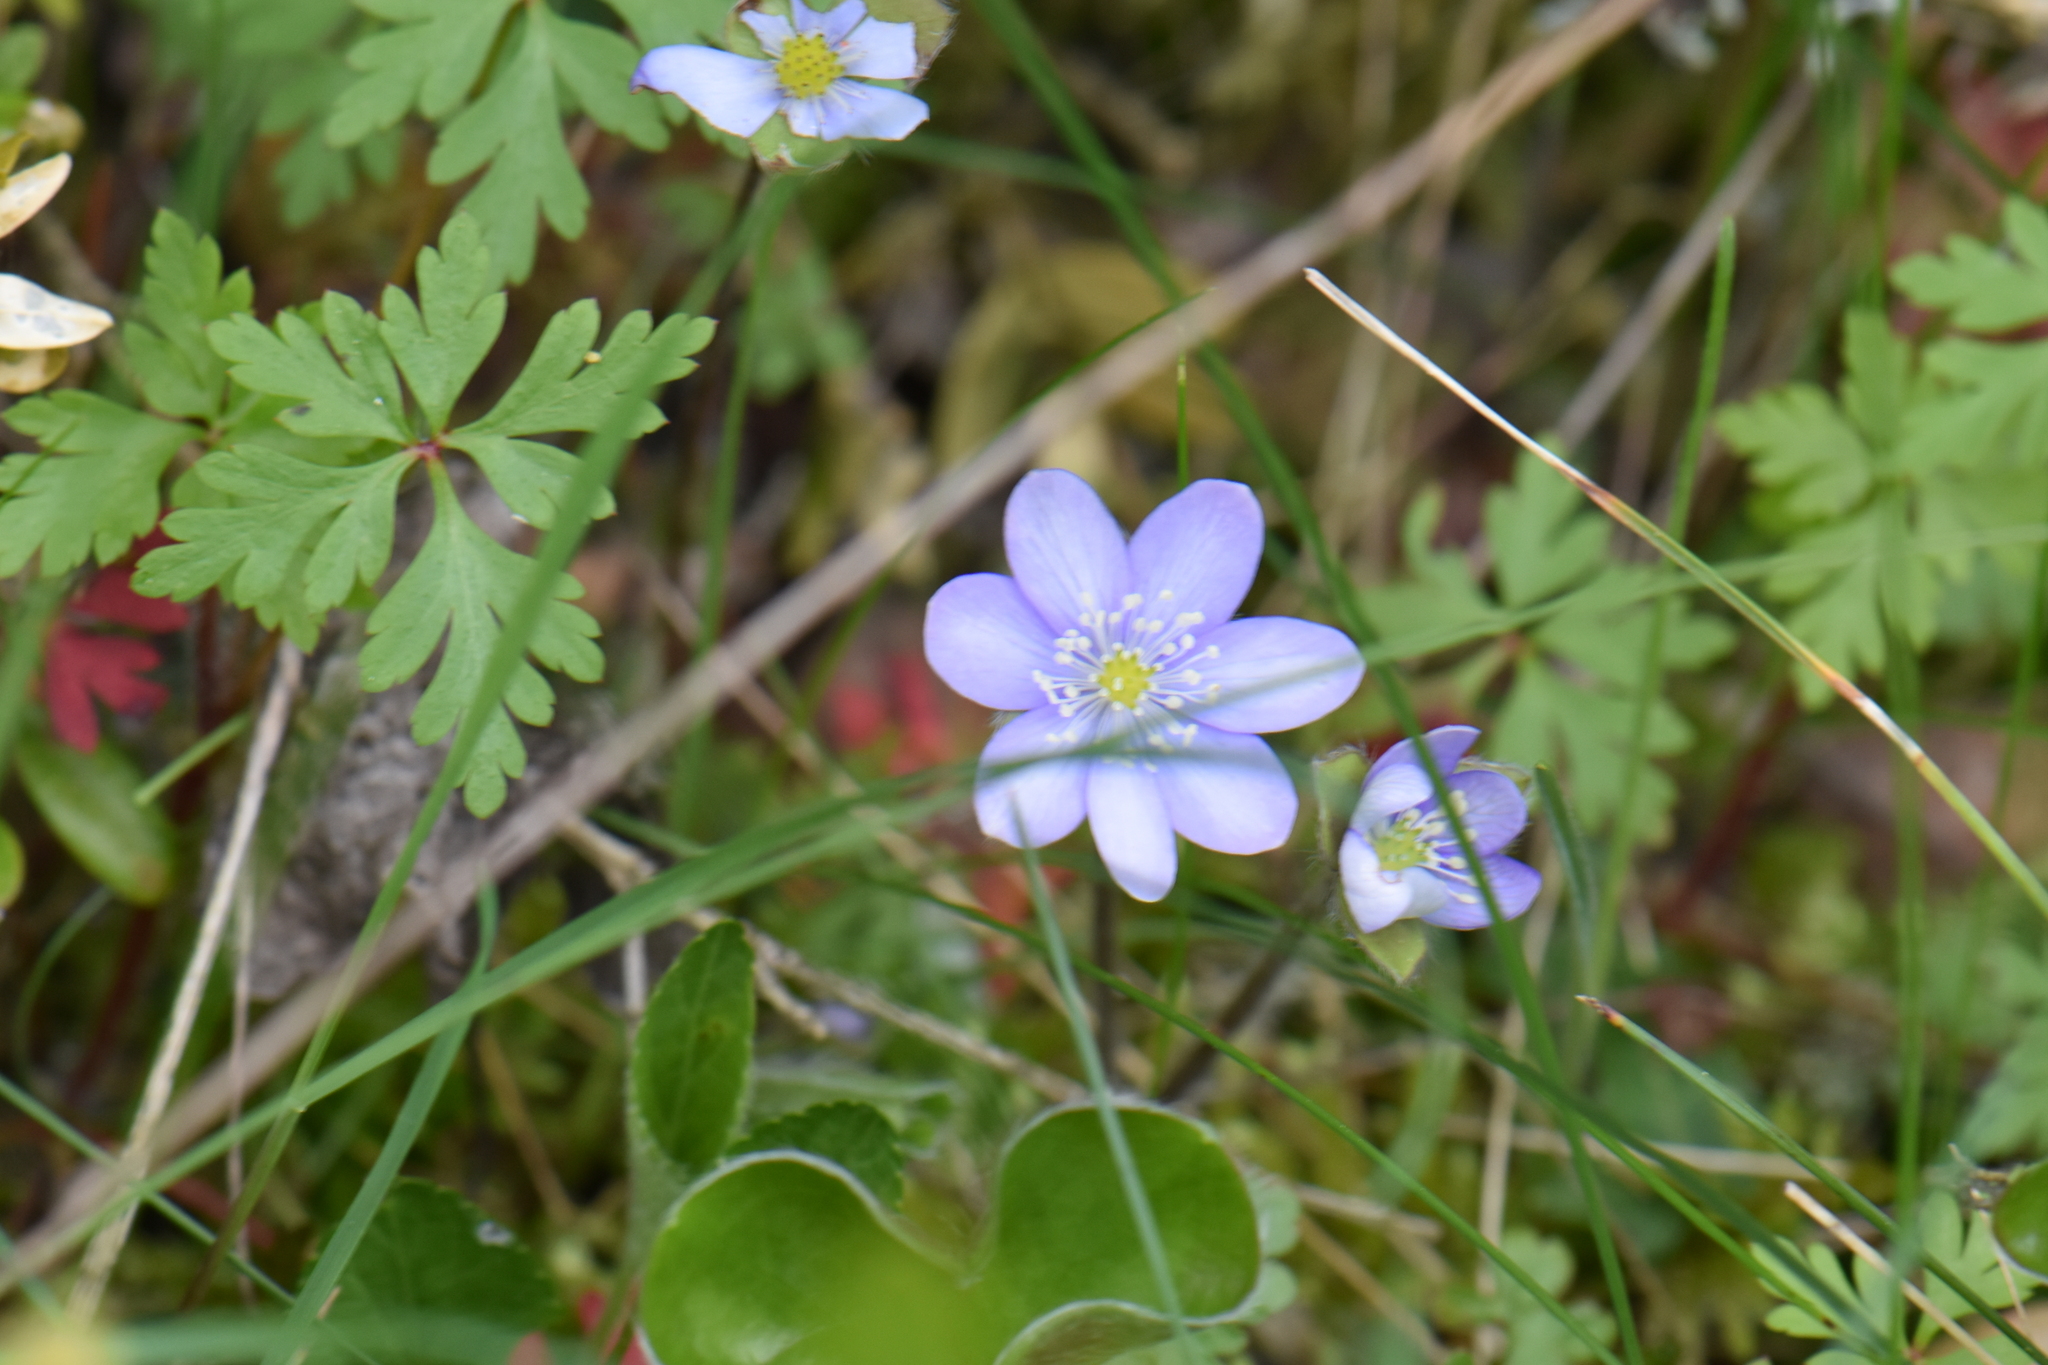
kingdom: Plantae
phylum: Tracheophyta
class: Magnoliopsida
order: Ranunculales
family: Ranunculaceae
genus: Hepatica
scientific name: Hepatica nobilis
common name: Liverleaf
